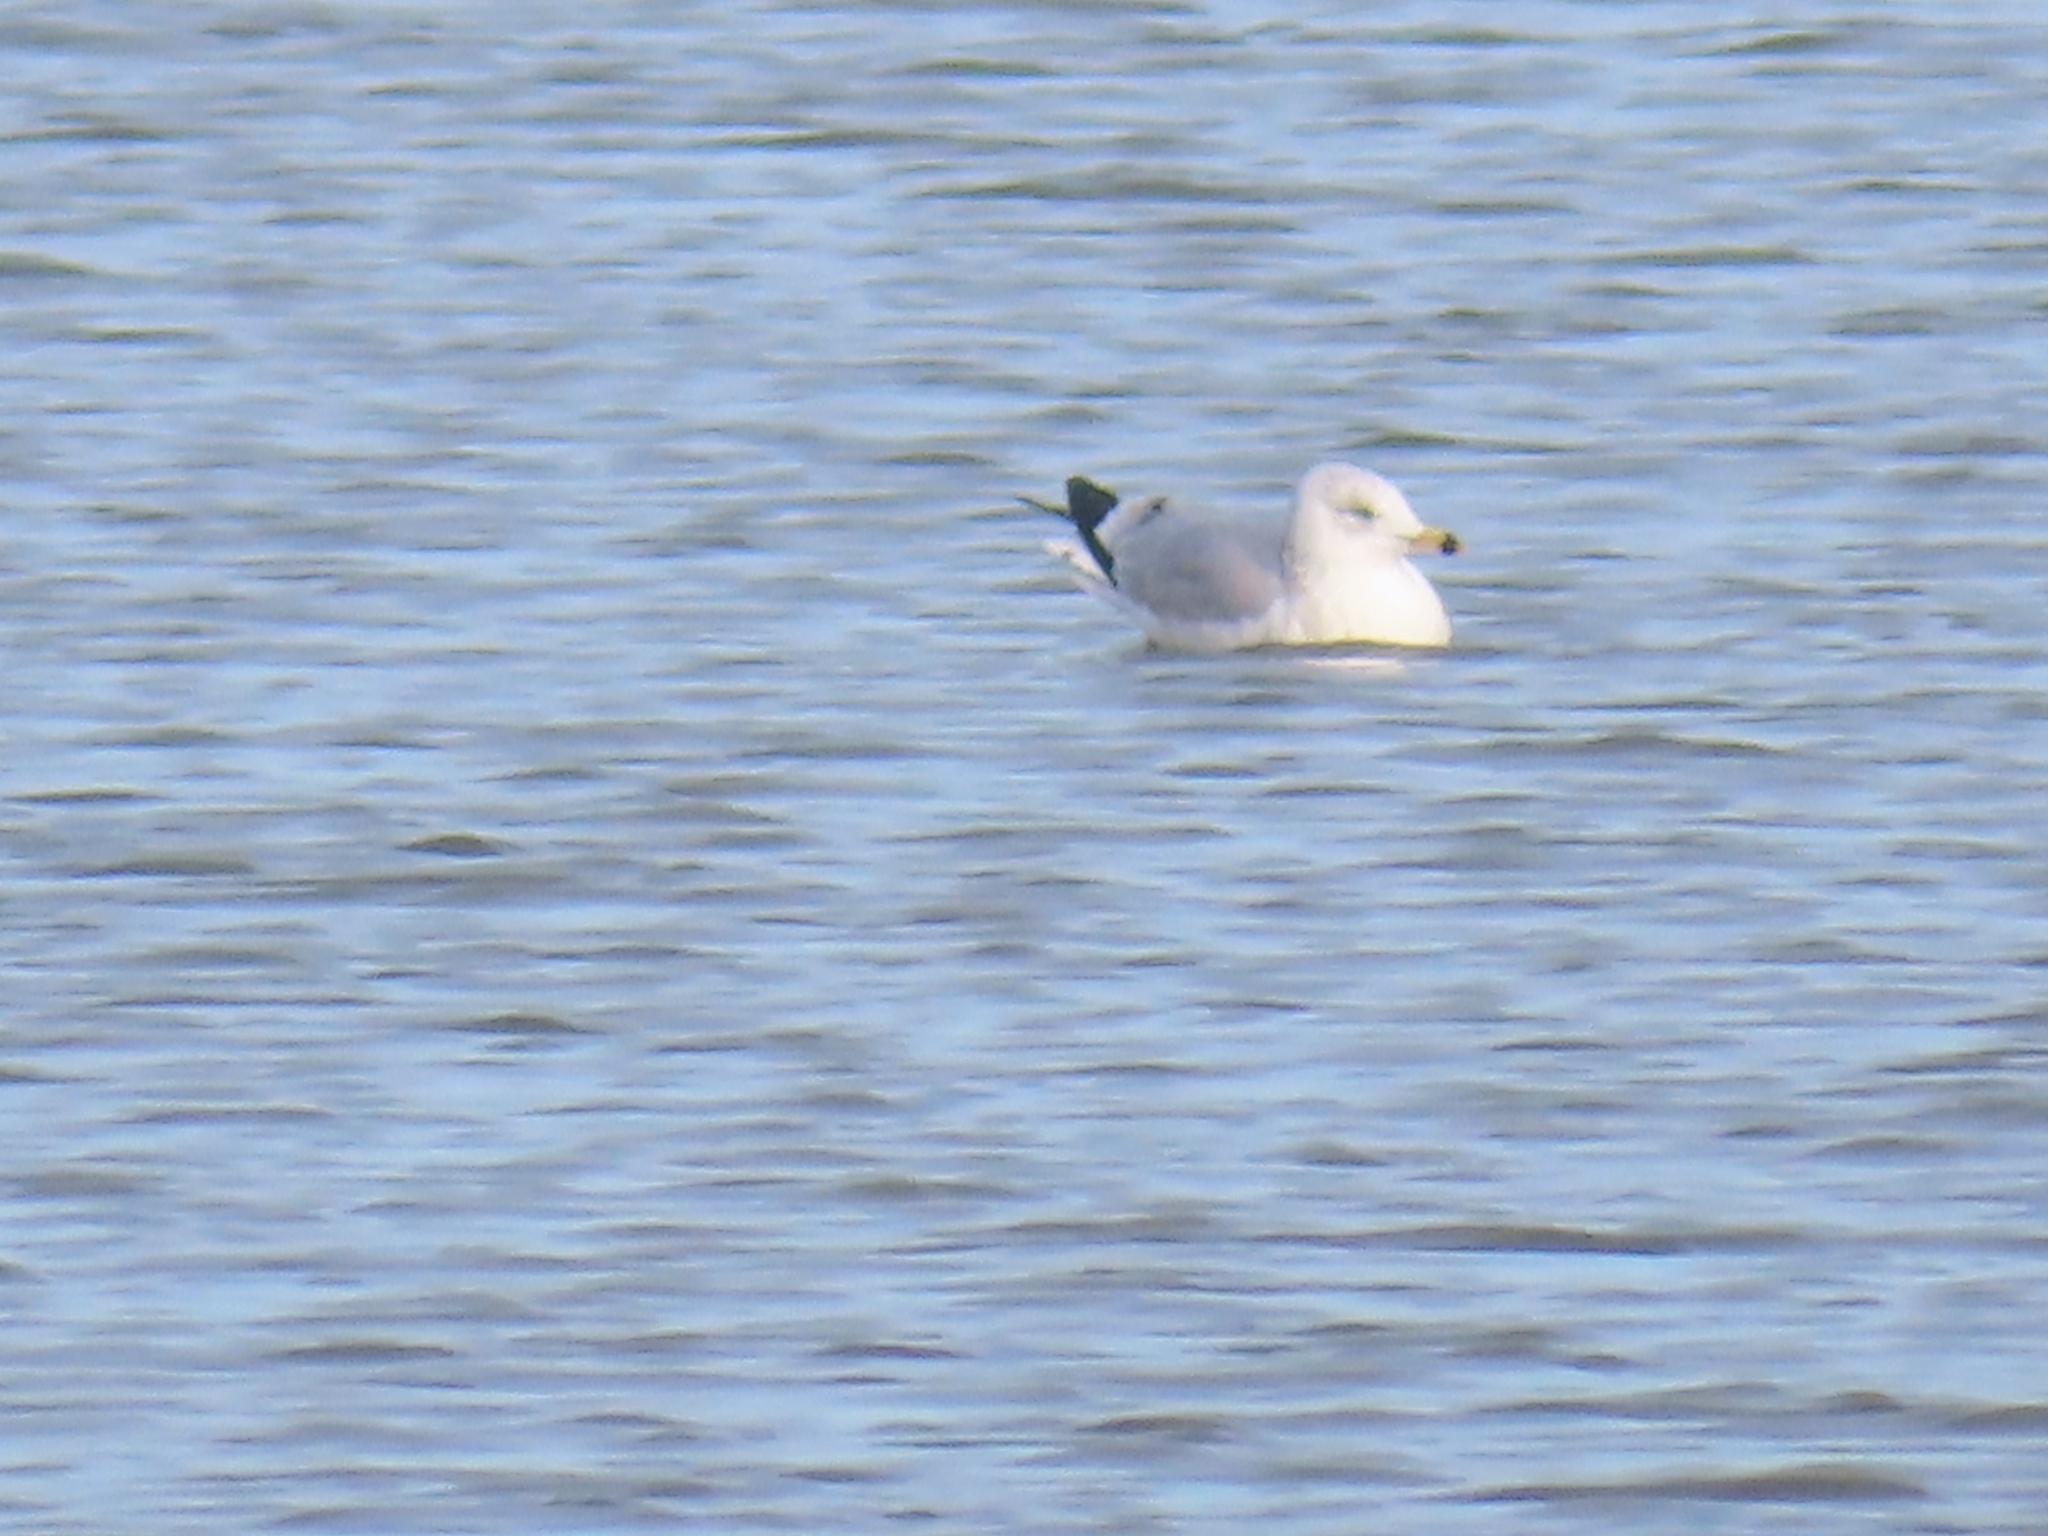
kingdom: Animalia
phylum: Chordata
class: Aves
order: Charadriiformes
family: Laridae
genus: Larus
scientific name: Larus delawarensis
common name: Ring-billed gull
